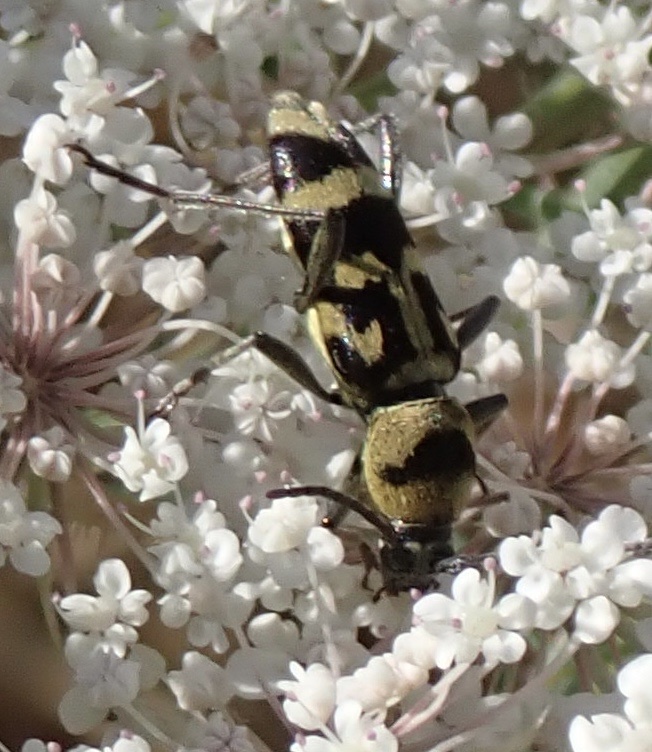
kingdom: Animalia
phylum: Arthropoda
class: Insecta
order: Coleoptera
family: Cerambycidae
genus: Chlorophorus
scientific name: Chlorophorus varius
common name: Grape wood borer
